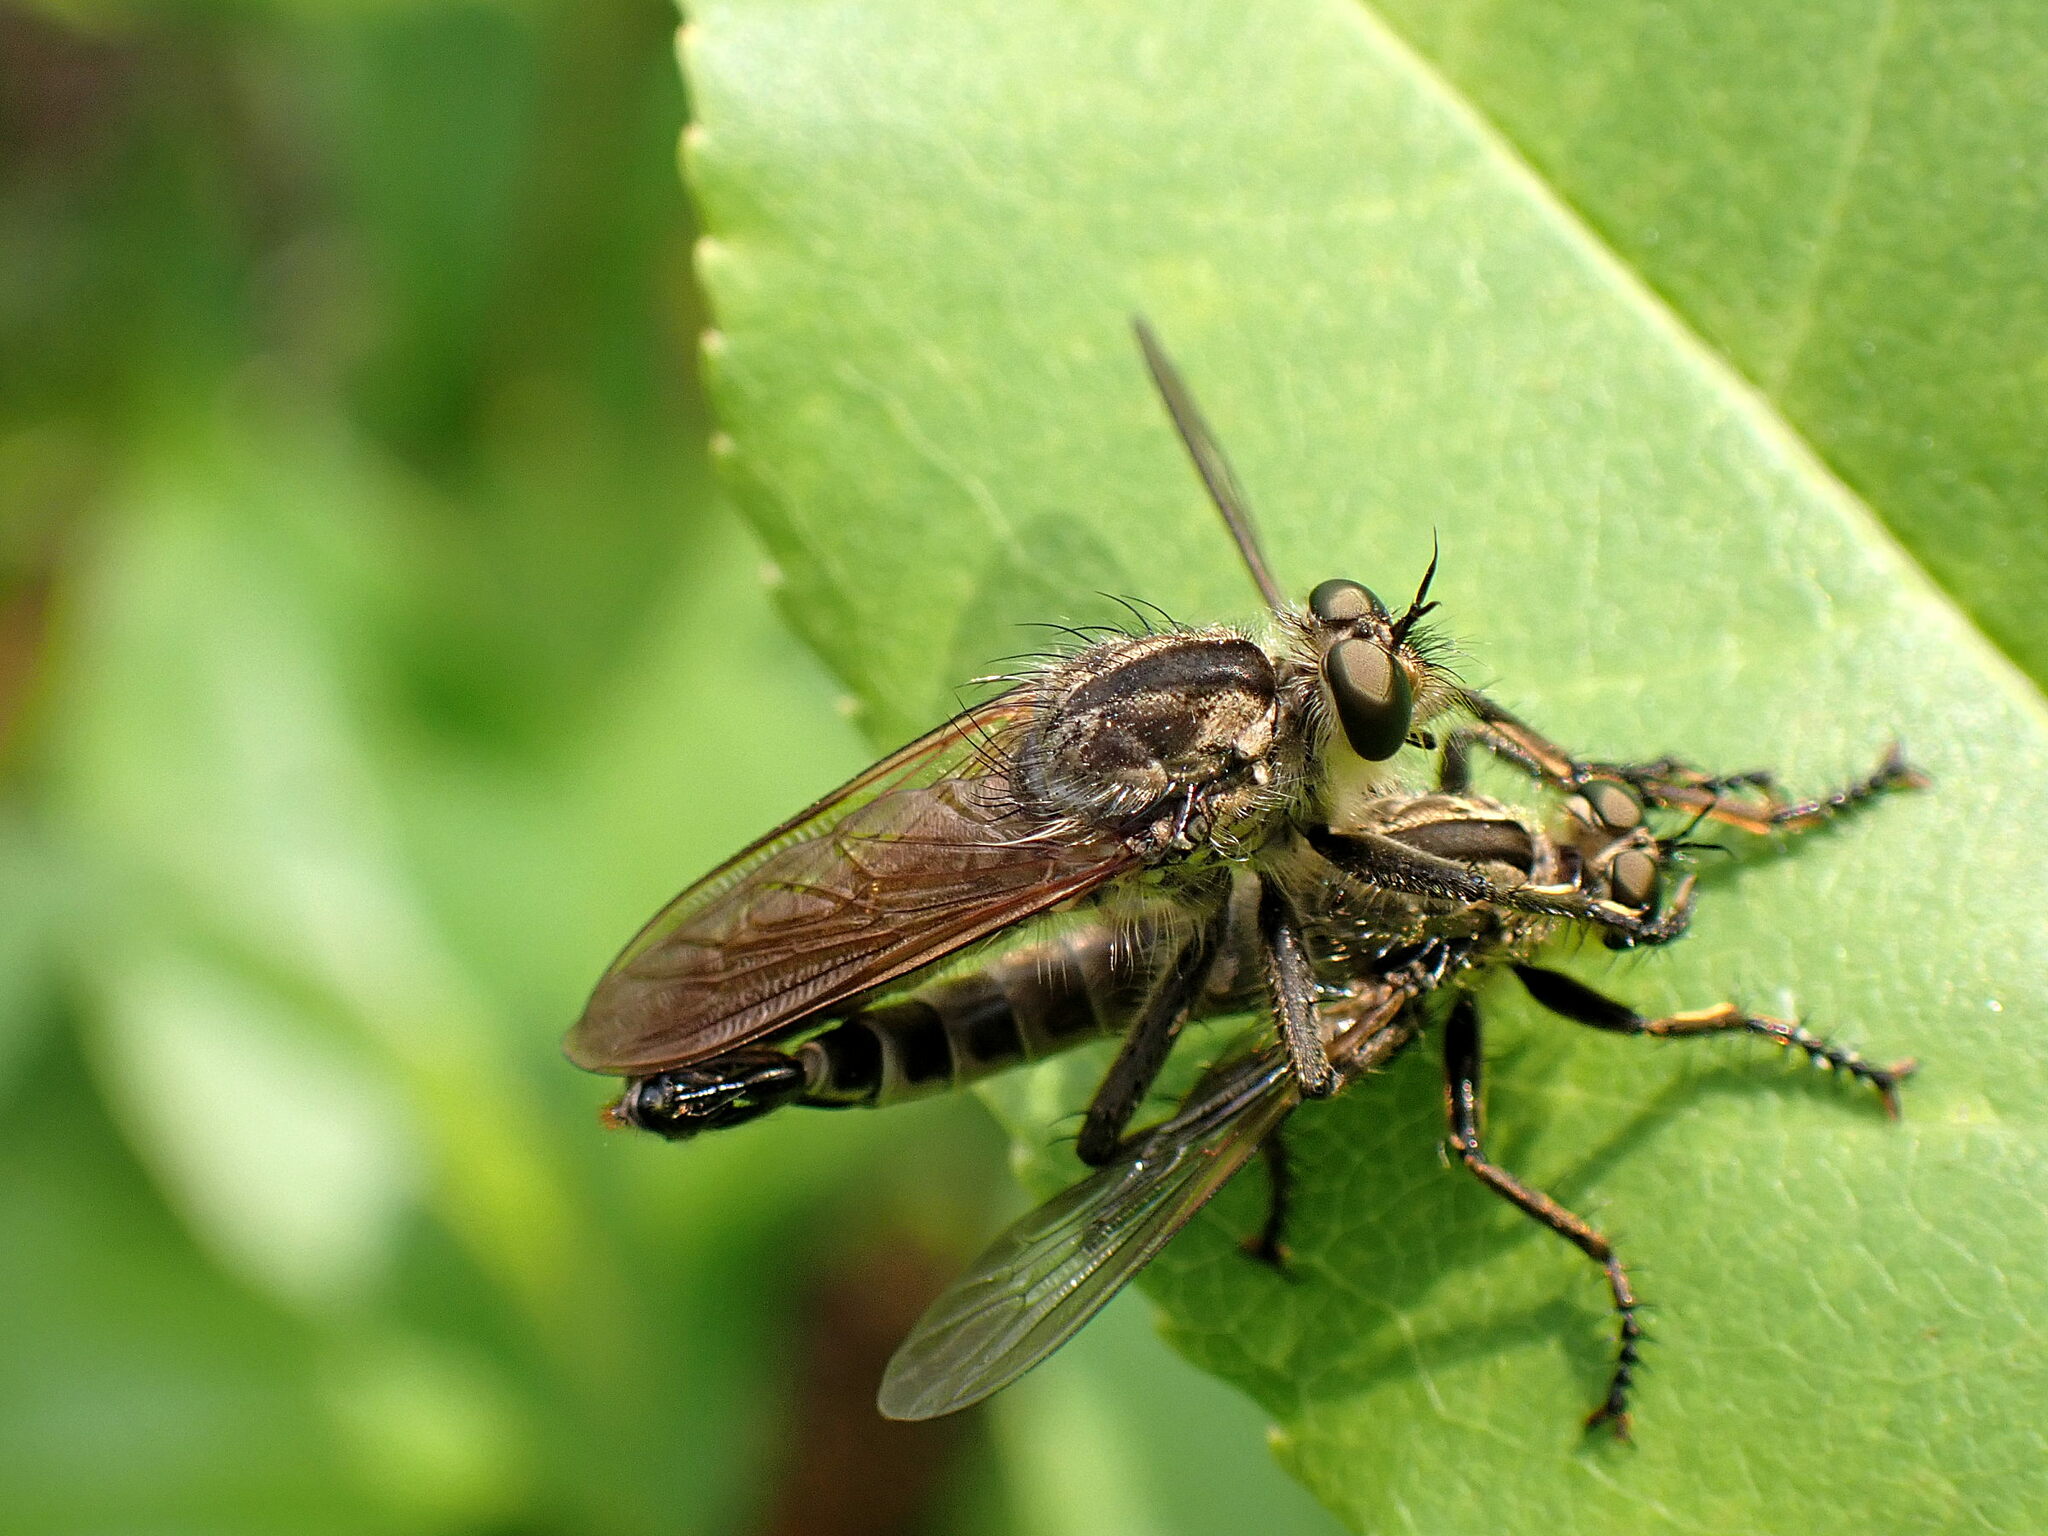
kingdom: Animalia
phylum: Arthropoda
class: Insecta
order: Diptera
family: Asilidae
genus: Eutolmus
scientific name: Eutolmus rufibarbis
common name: Golden-tabbed robberfly
